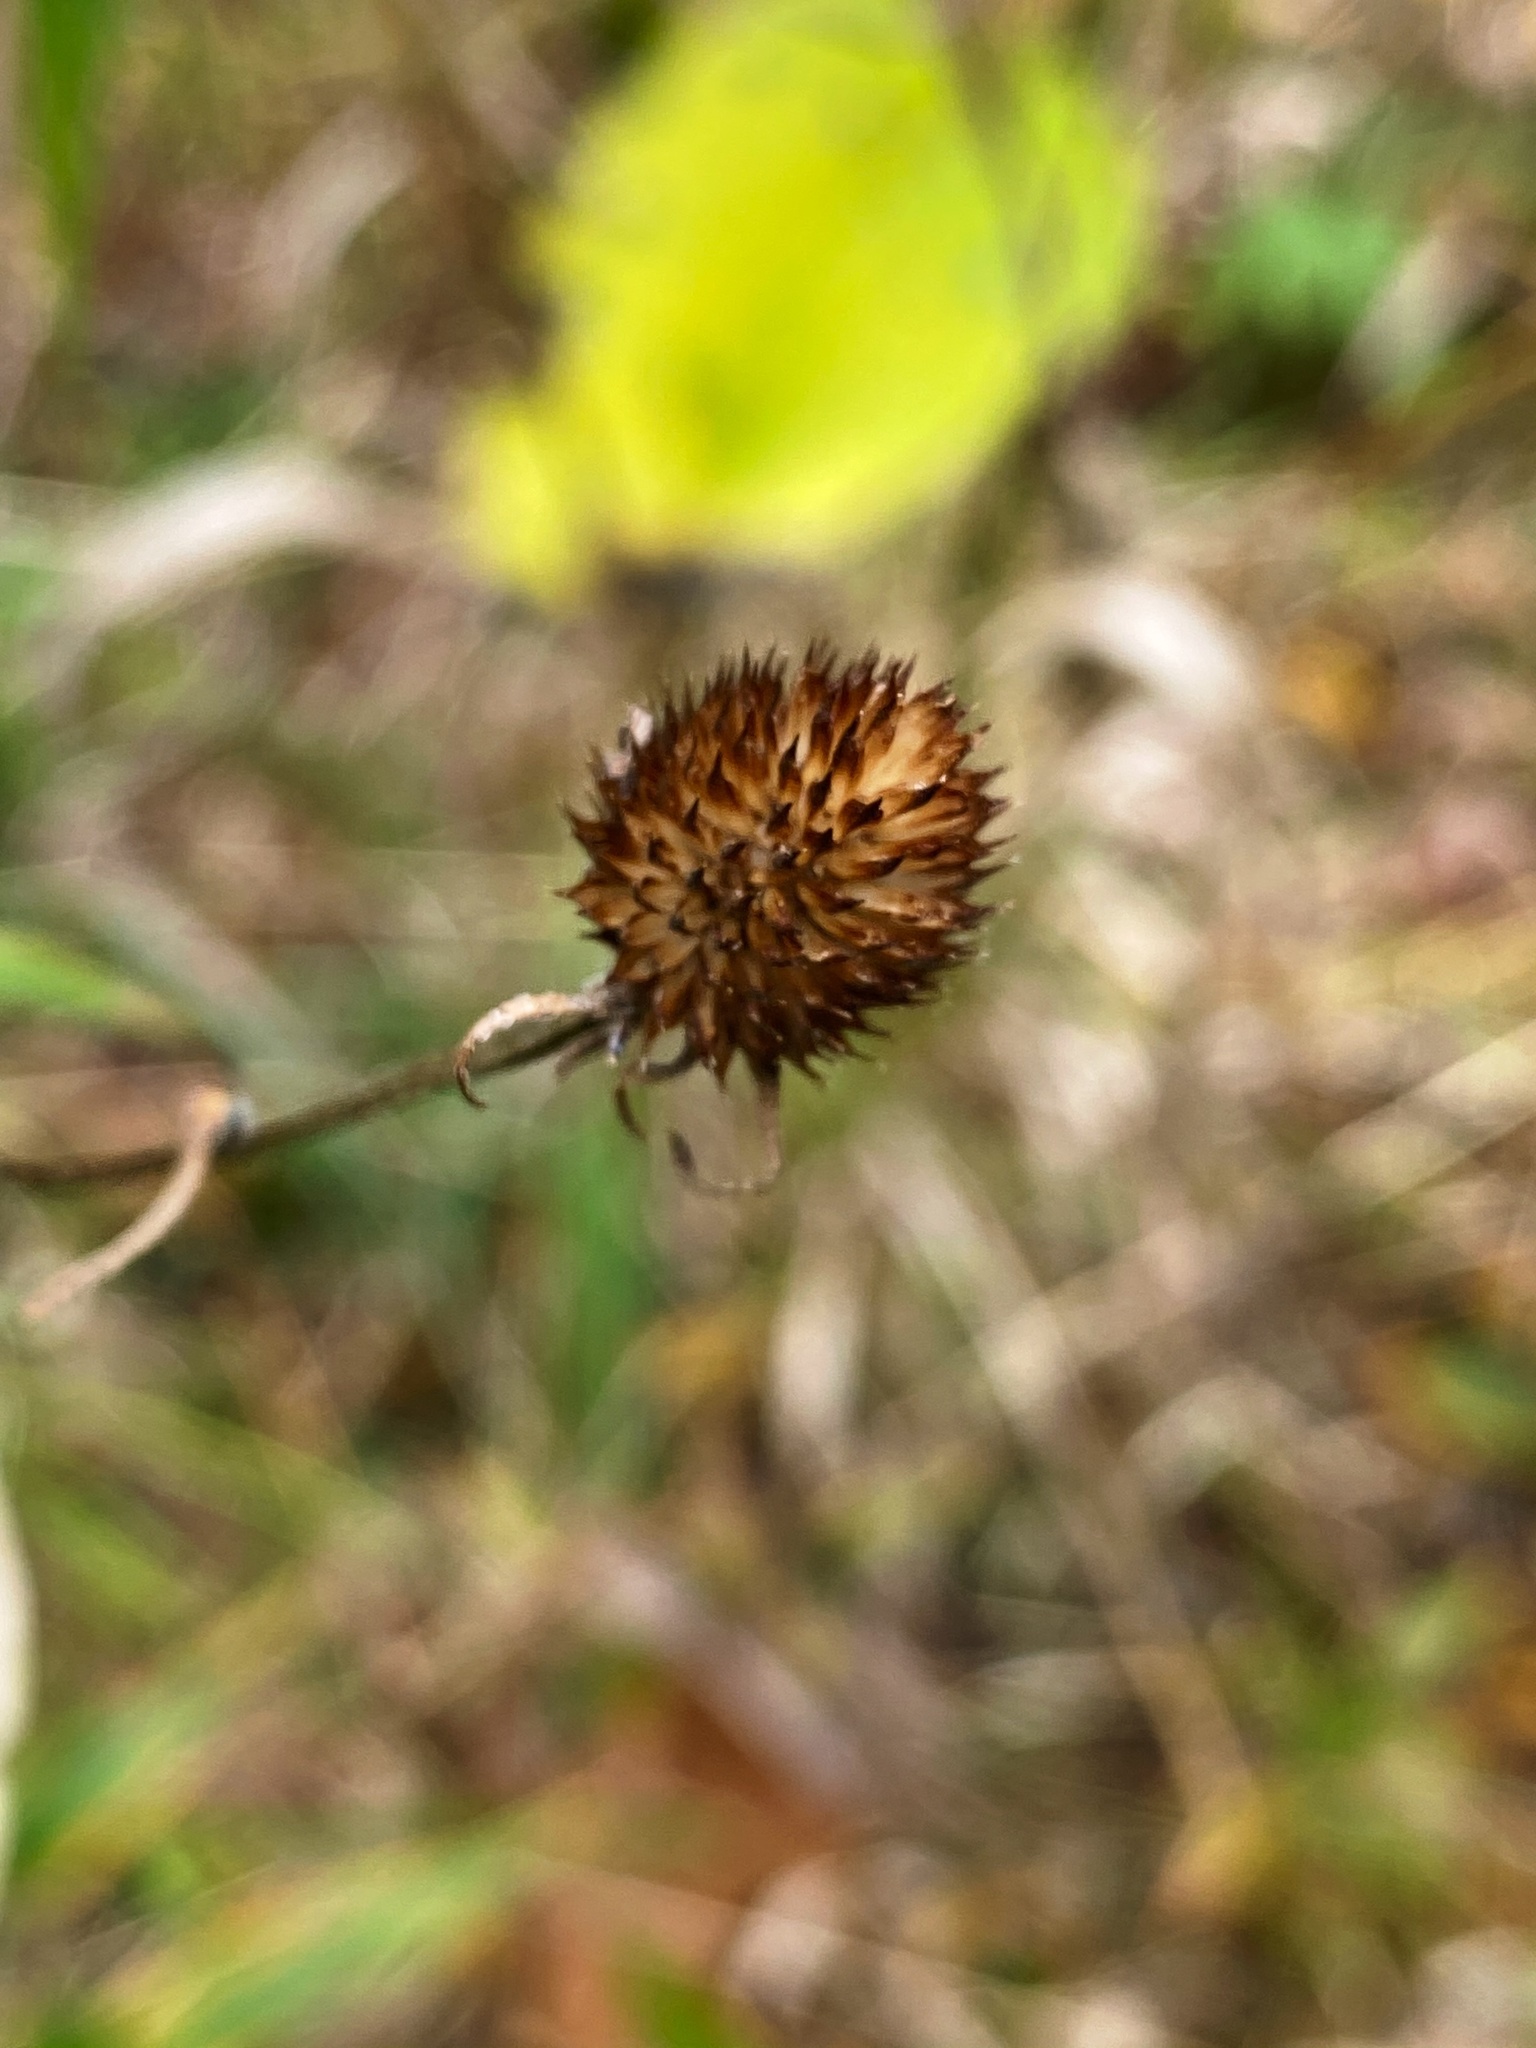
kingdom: Plantae
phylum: Tracheophyta
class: Magnoliopsida
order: Asterales
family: Asteraceae
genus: Rudbeckia
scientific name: Rudbeckia triloba
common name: Thin-leaved coneflower
